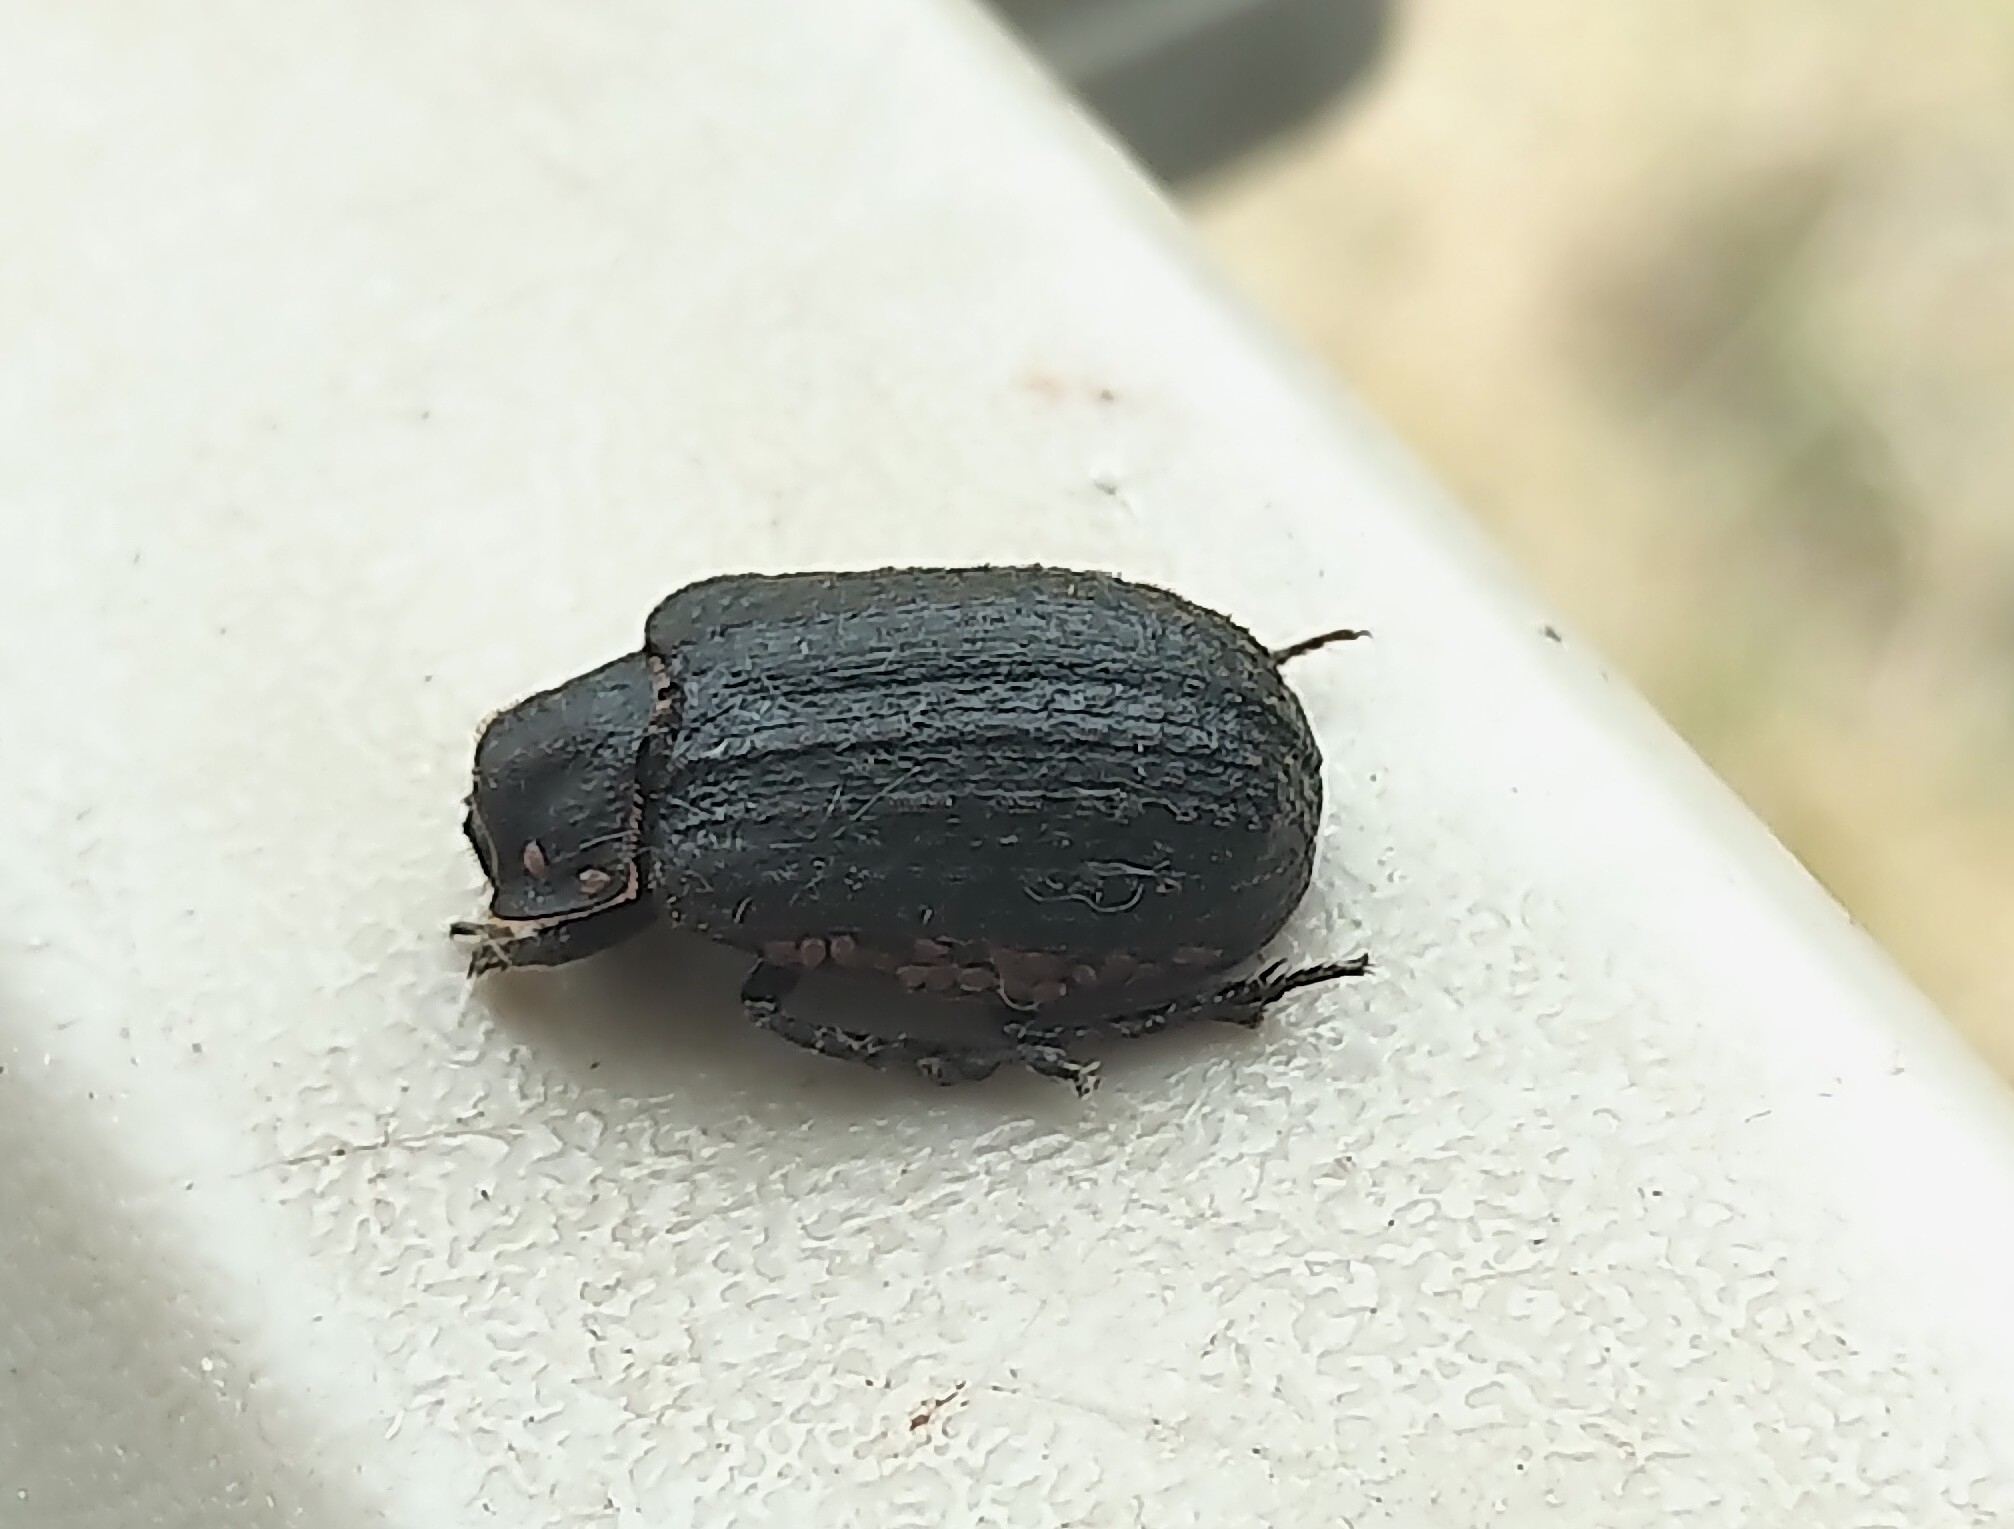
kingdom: Animalia
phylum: Arthropoda
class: Insecta
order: Coleoptera
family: Trogidae
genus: Trox
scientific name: Trox unistriatus
